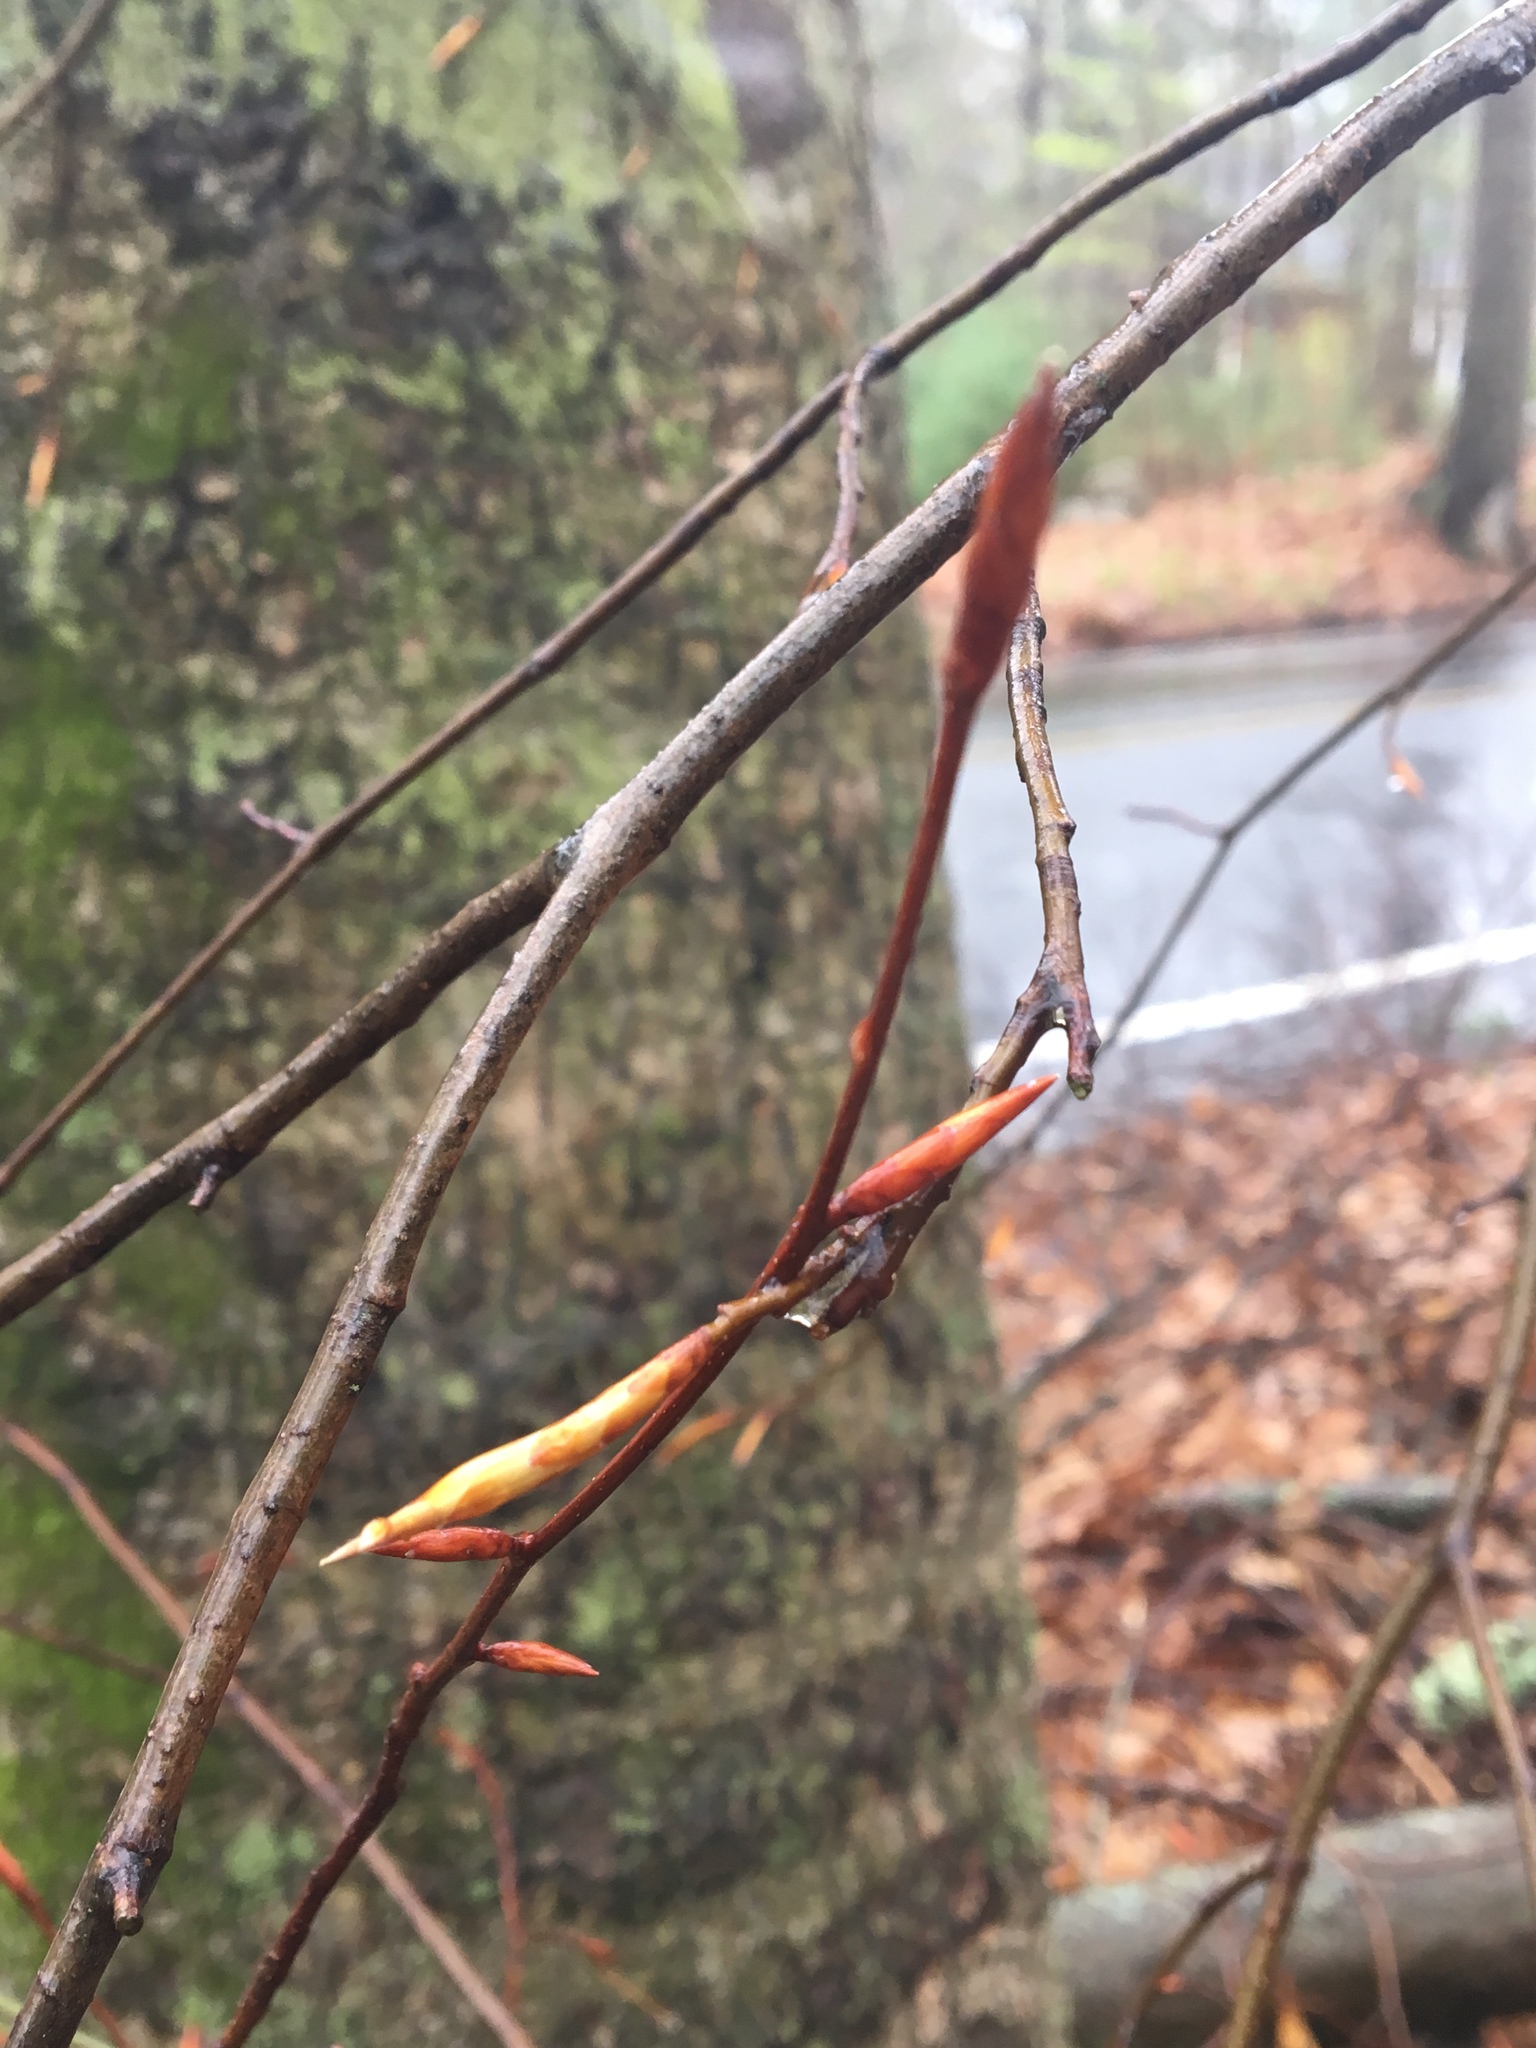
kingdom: Plantae
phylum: Tracheophyta
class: Magnoliopsida
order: Fagales
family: Fagaceae
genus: Fagus
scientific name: Fagus grandifolia
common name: American beech
